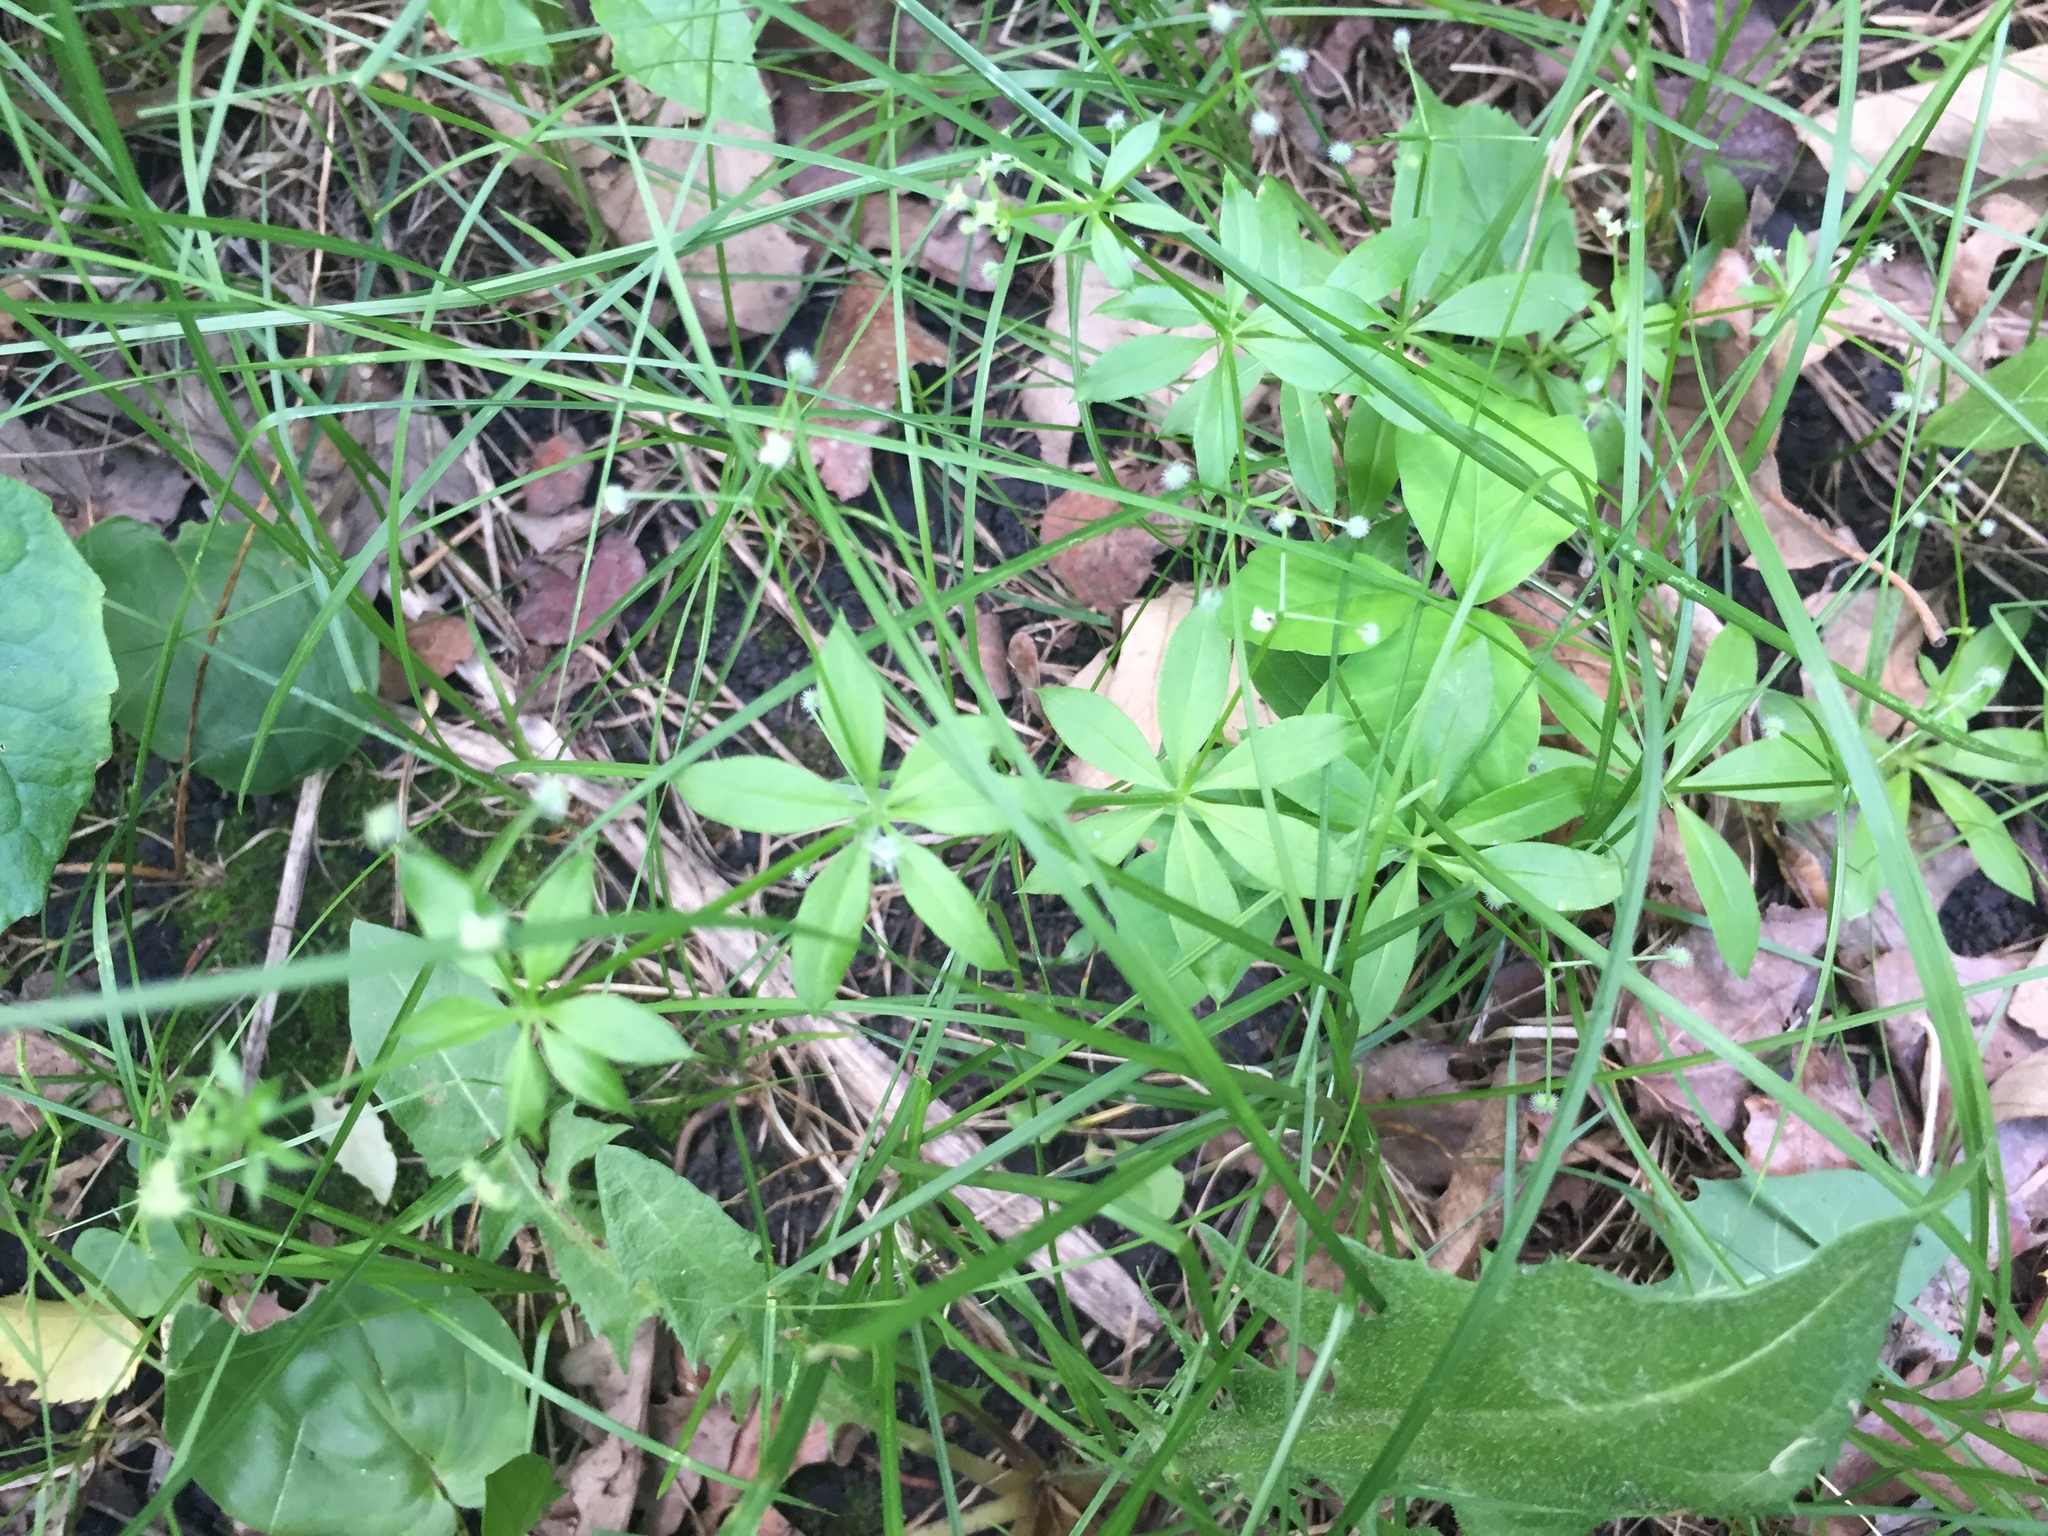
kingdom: Plantae
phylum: Tracheophyta
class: Magnoliopsida
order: Gentianales
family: Rubiaceae
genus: Galium
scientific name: Galium triflorum
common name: Fragrant bedstraw
